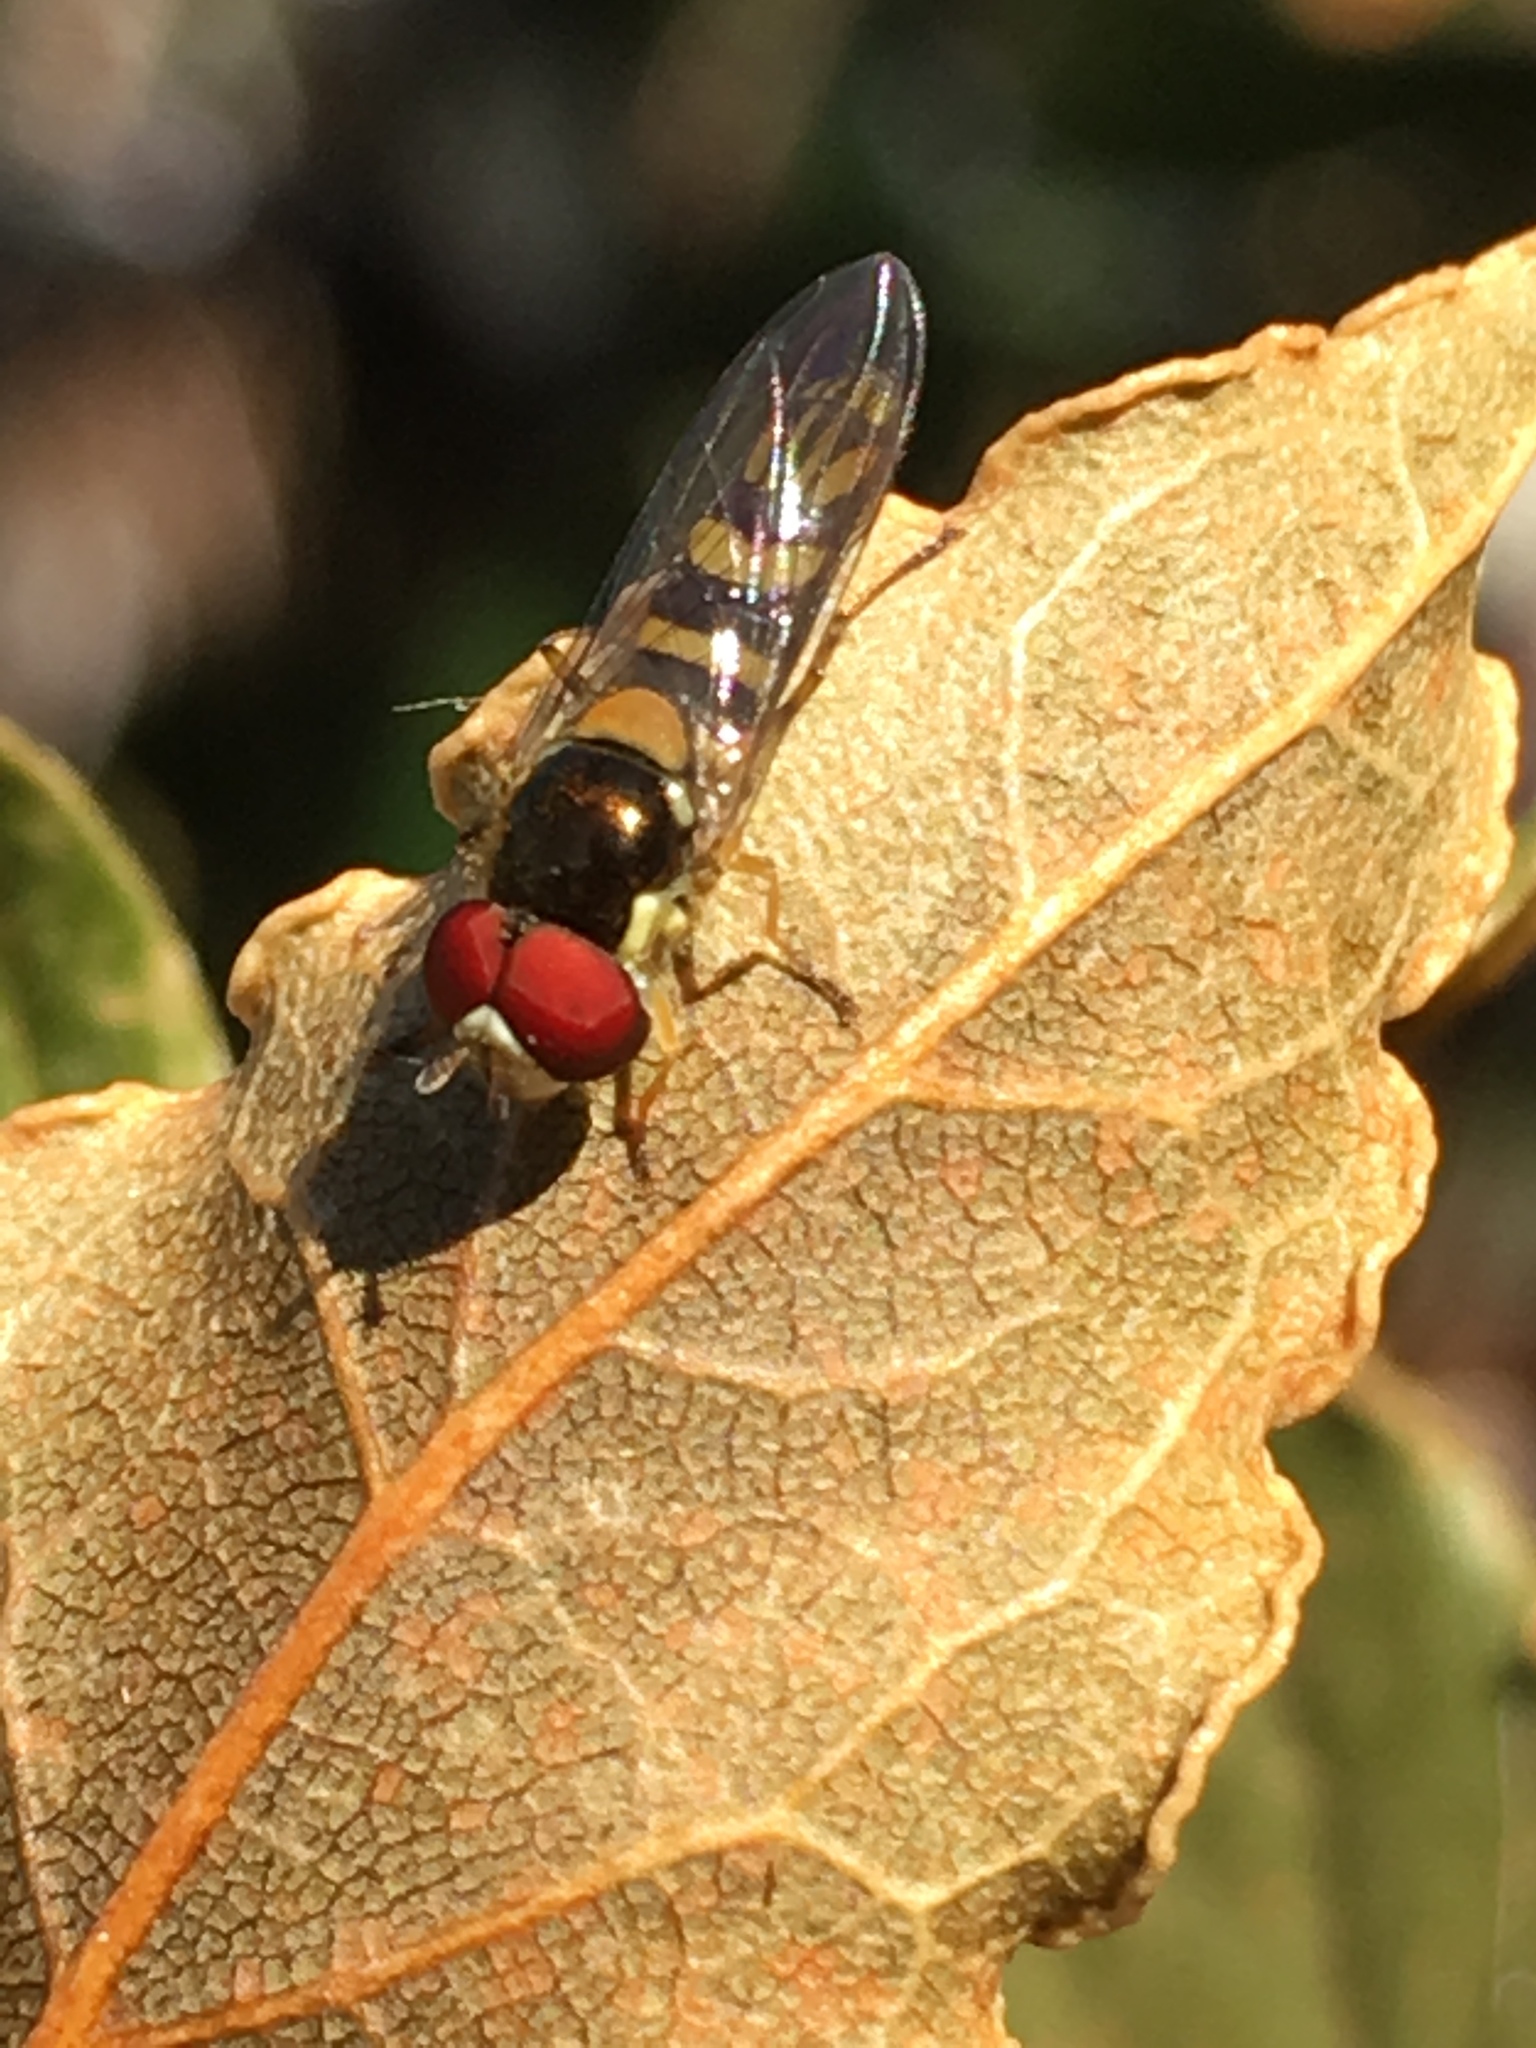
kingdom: Animalia
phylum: Arthropoda
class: Insecta
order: Diptera
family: Syrphidae
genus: Allograpta
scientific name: Allograpta obliqua
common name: Common oblique syrphid
